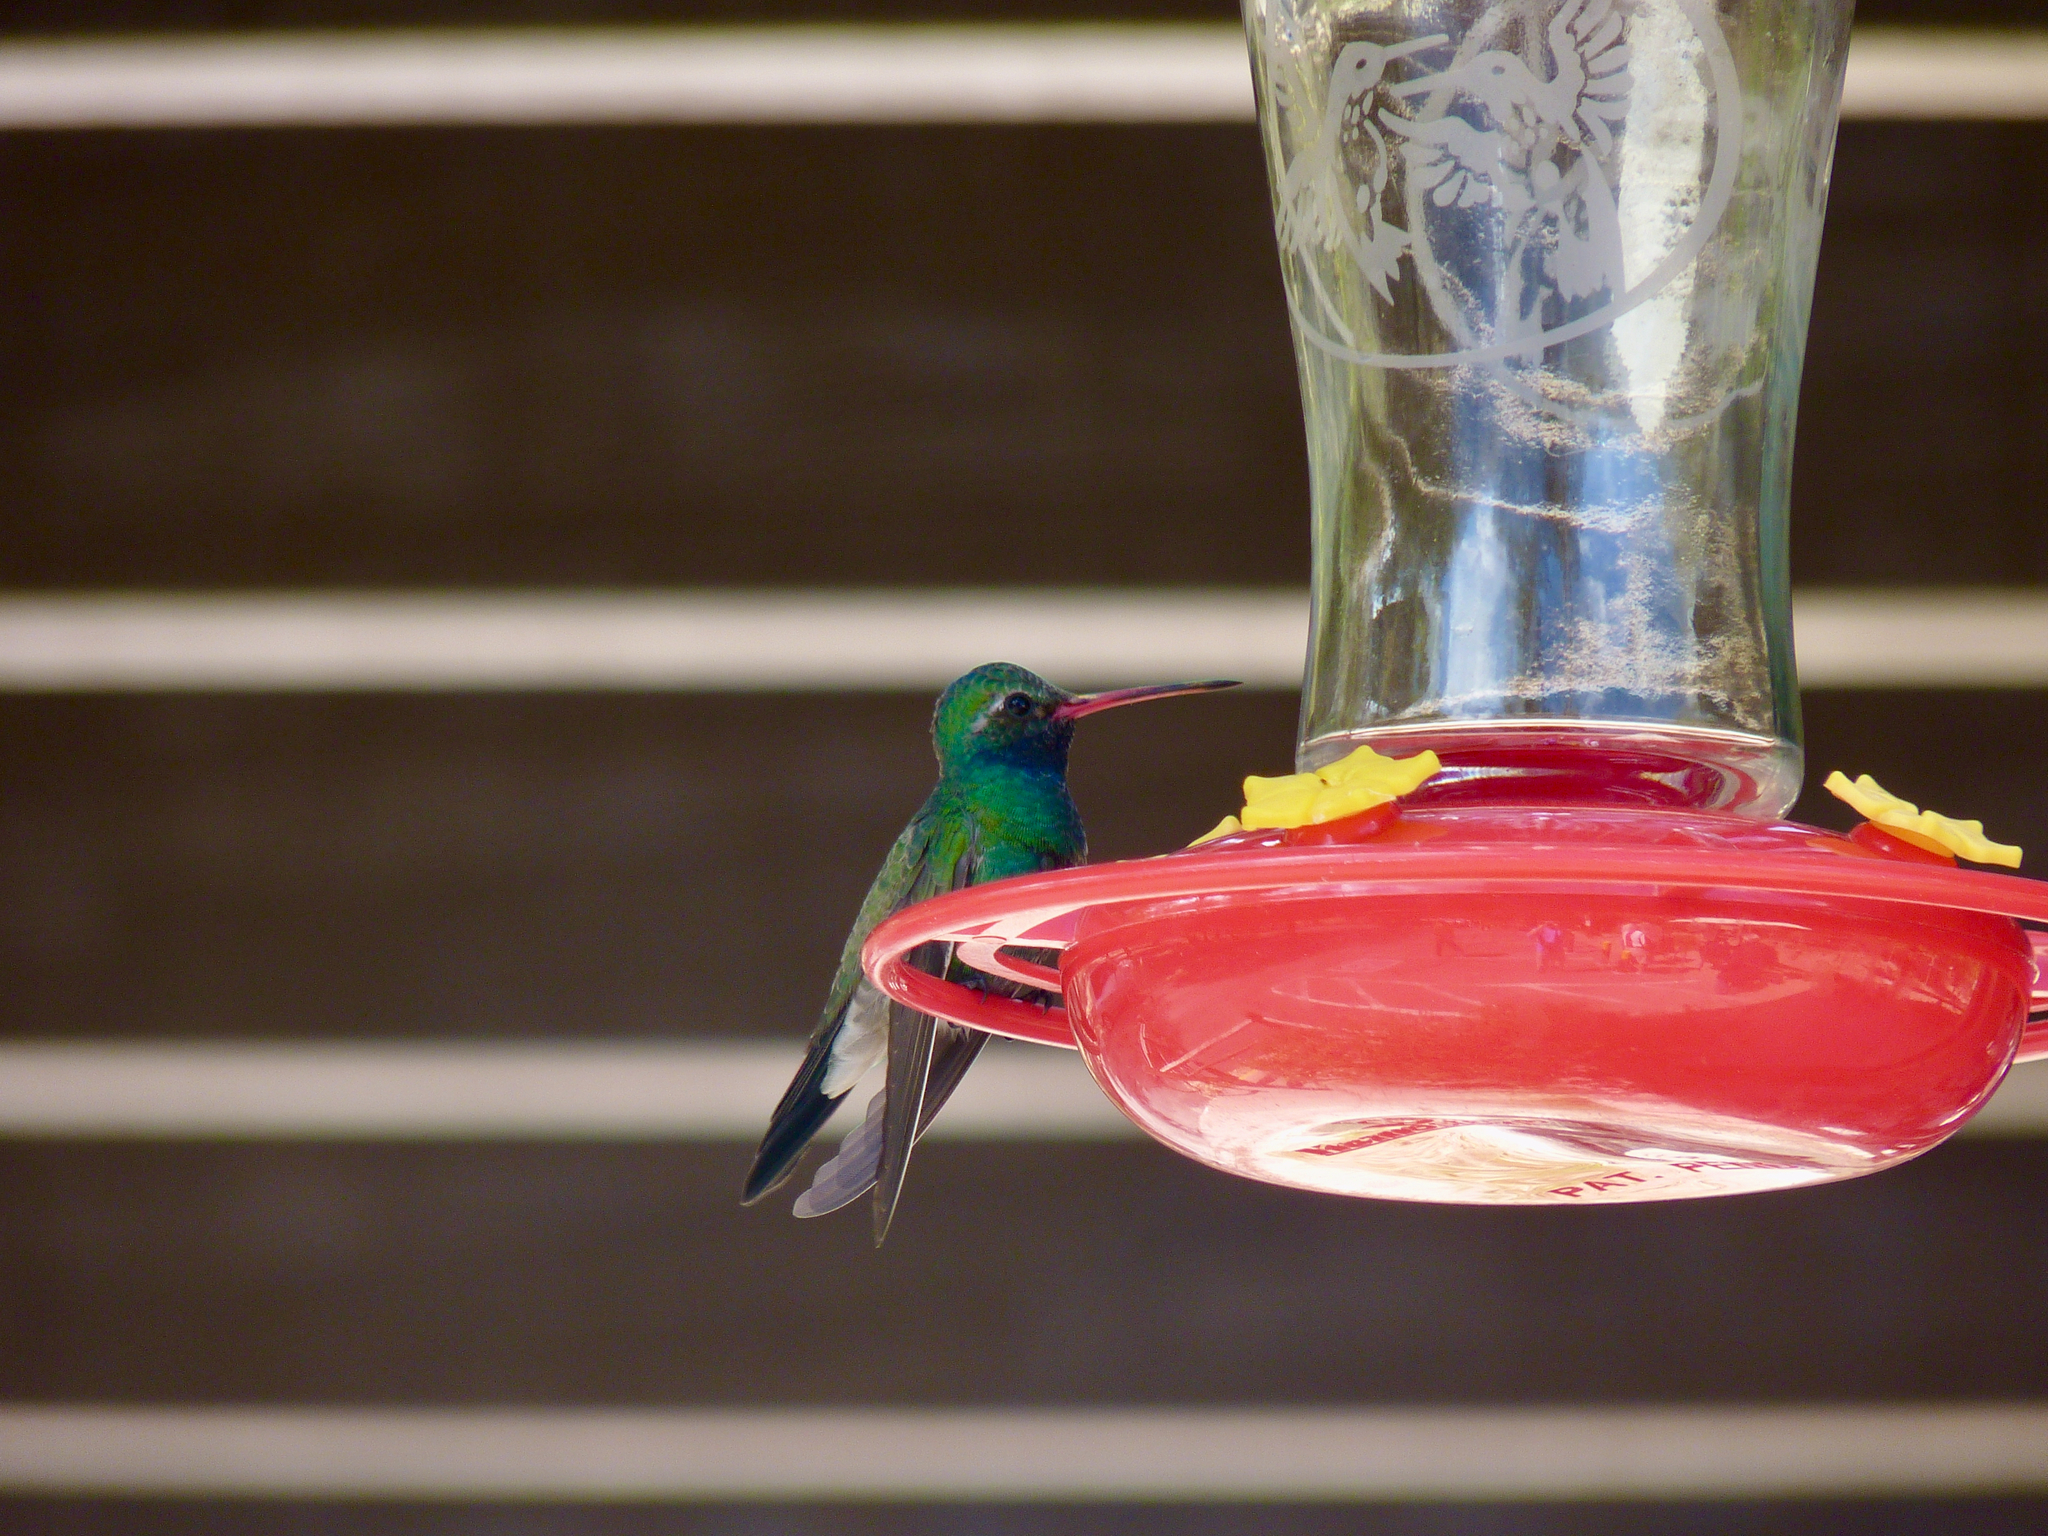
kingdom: Animalia
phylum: Chordata
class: Aves
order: Apodiformes
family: Trochilidae
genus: Cynanthus
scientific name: Cynanthus latirostris
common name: Broad-billed hummingbird
